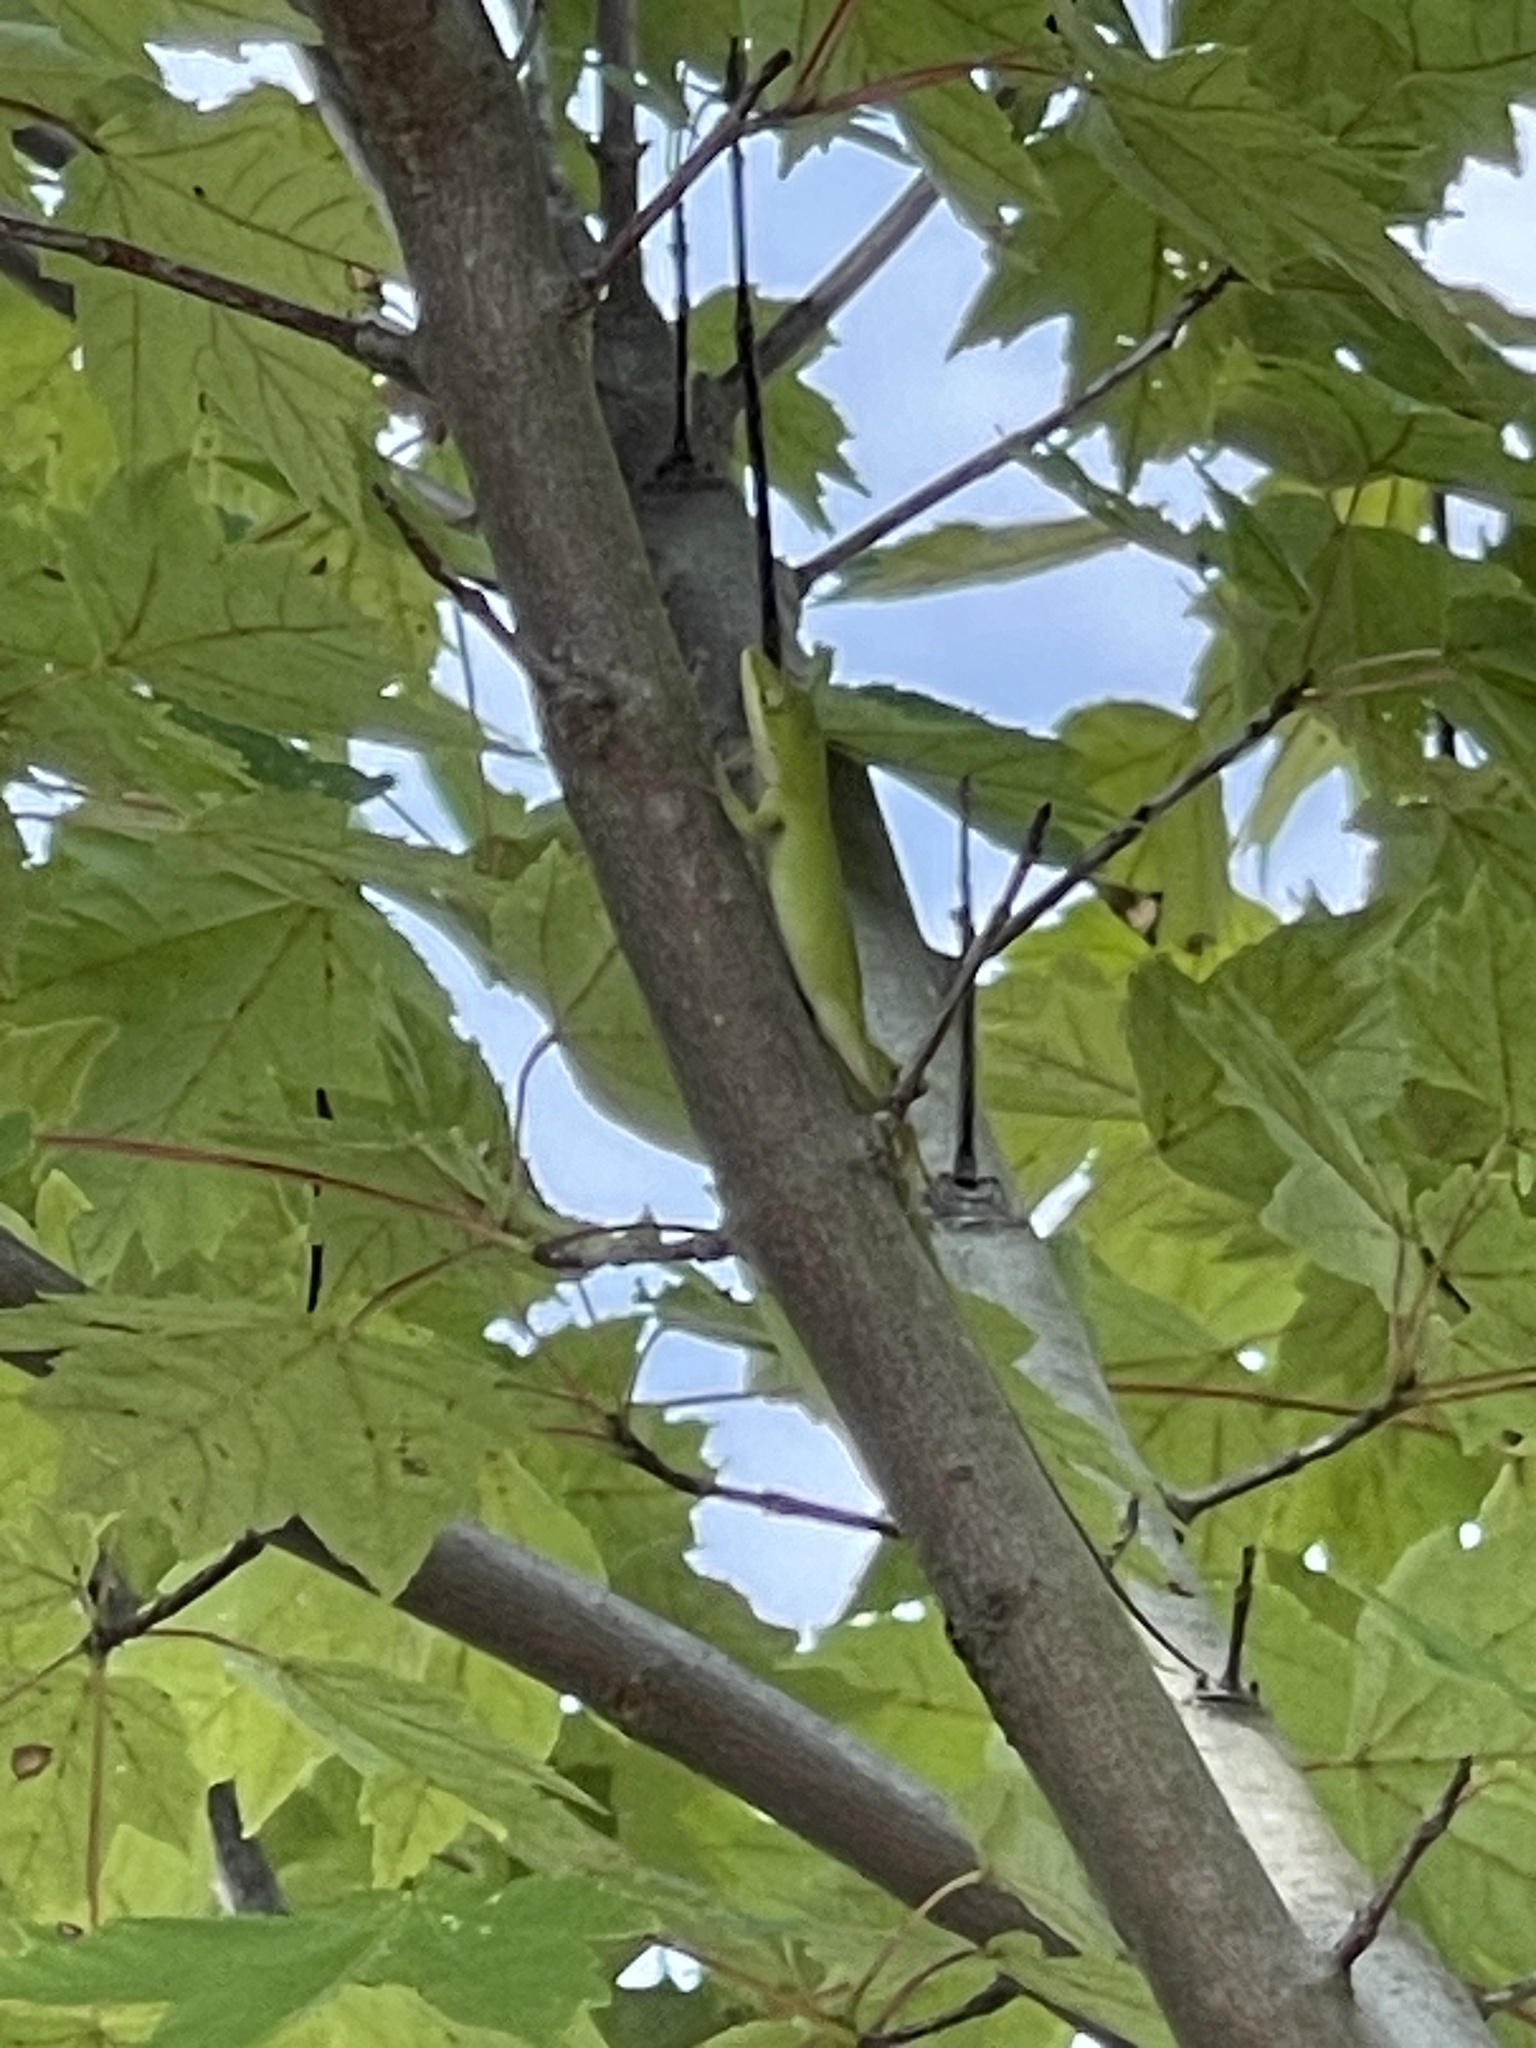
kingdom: Animalia
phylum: Chordata
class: Squamata
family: Dactyloidae
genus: Anolis
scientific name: Anolis carolinensis
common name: Green anole
